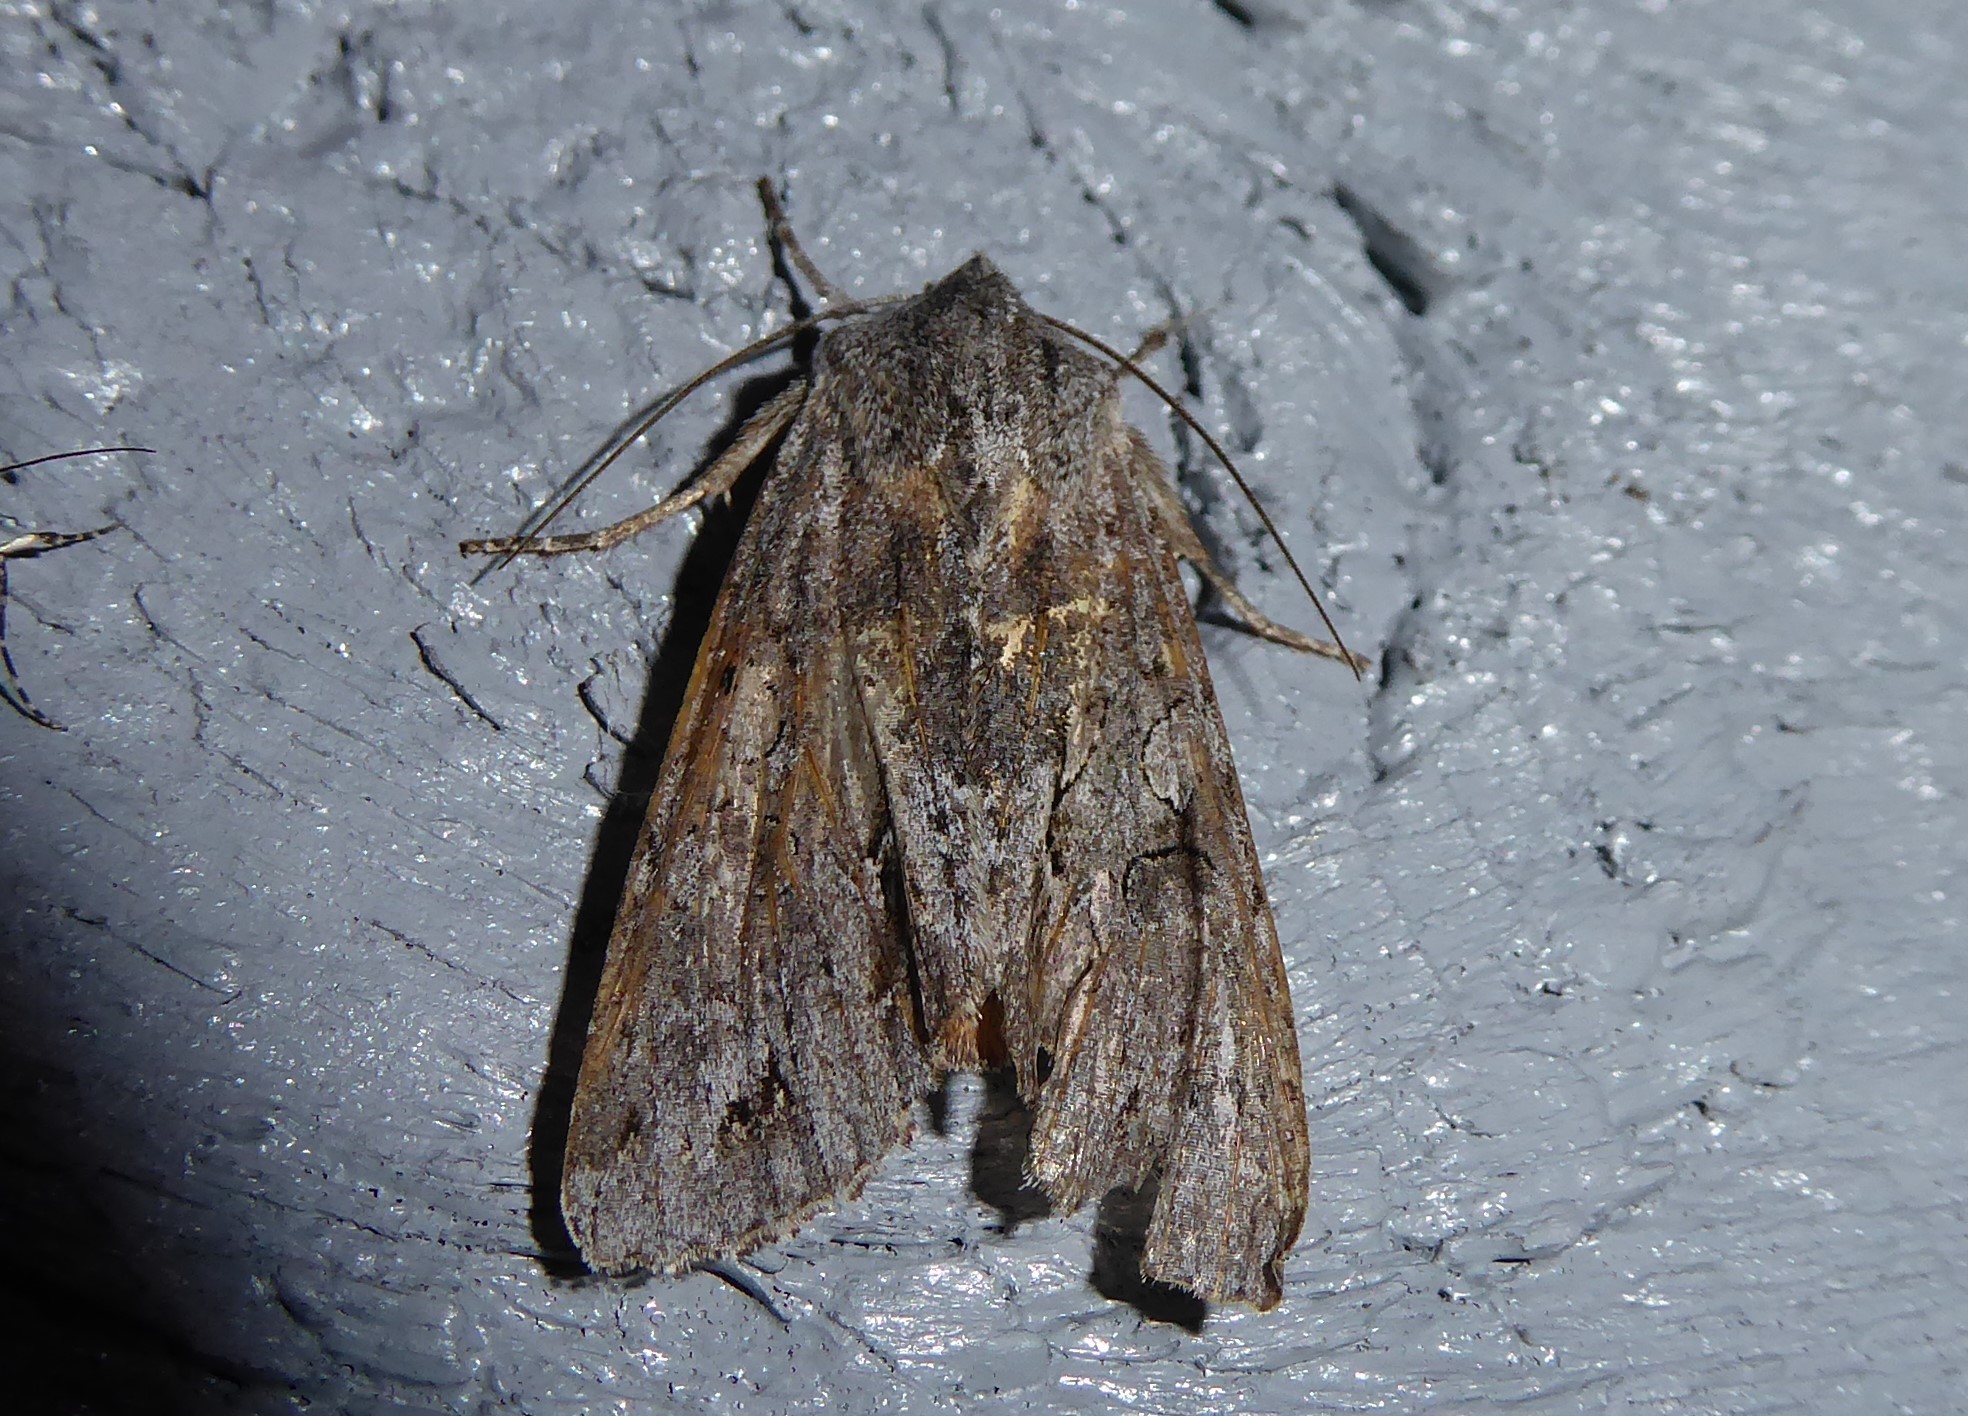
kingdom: Animalia
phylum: Arthropoda
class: Insecta
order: Lepidoptera
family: Noctuidae
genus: Ichneutica
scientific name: Ichneutica
